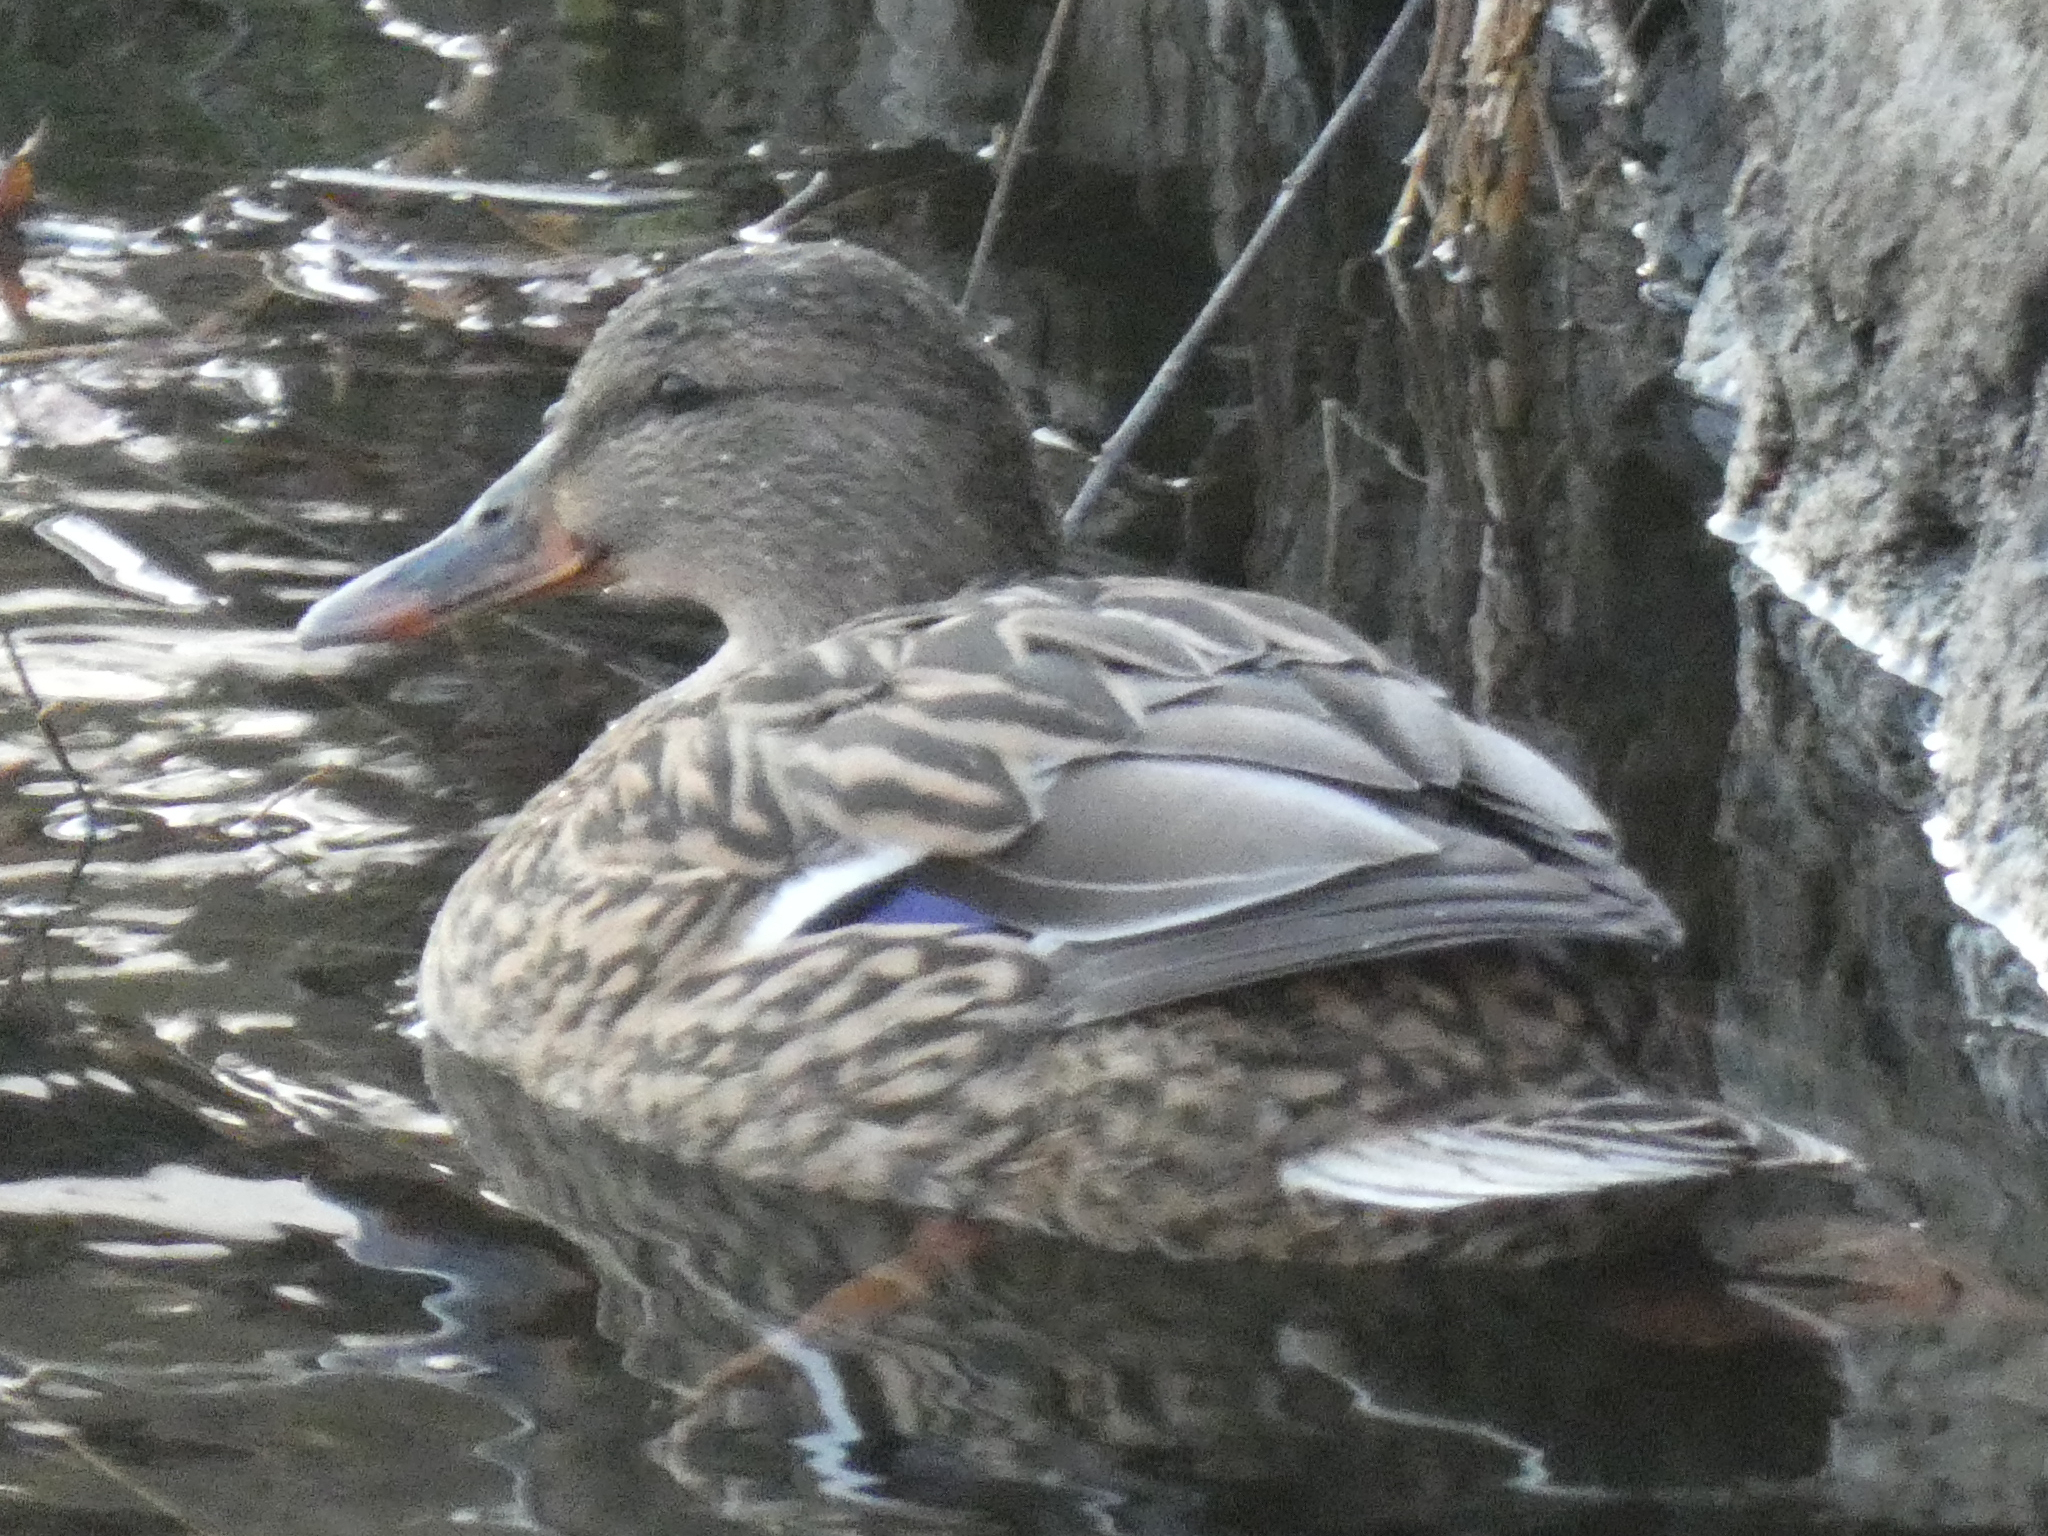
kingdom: Animalia
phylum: Chordata
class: Aves
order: Anseriformes
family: Anatidae
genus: Anas
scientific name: Anas platyrhynchos
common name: Mallard
